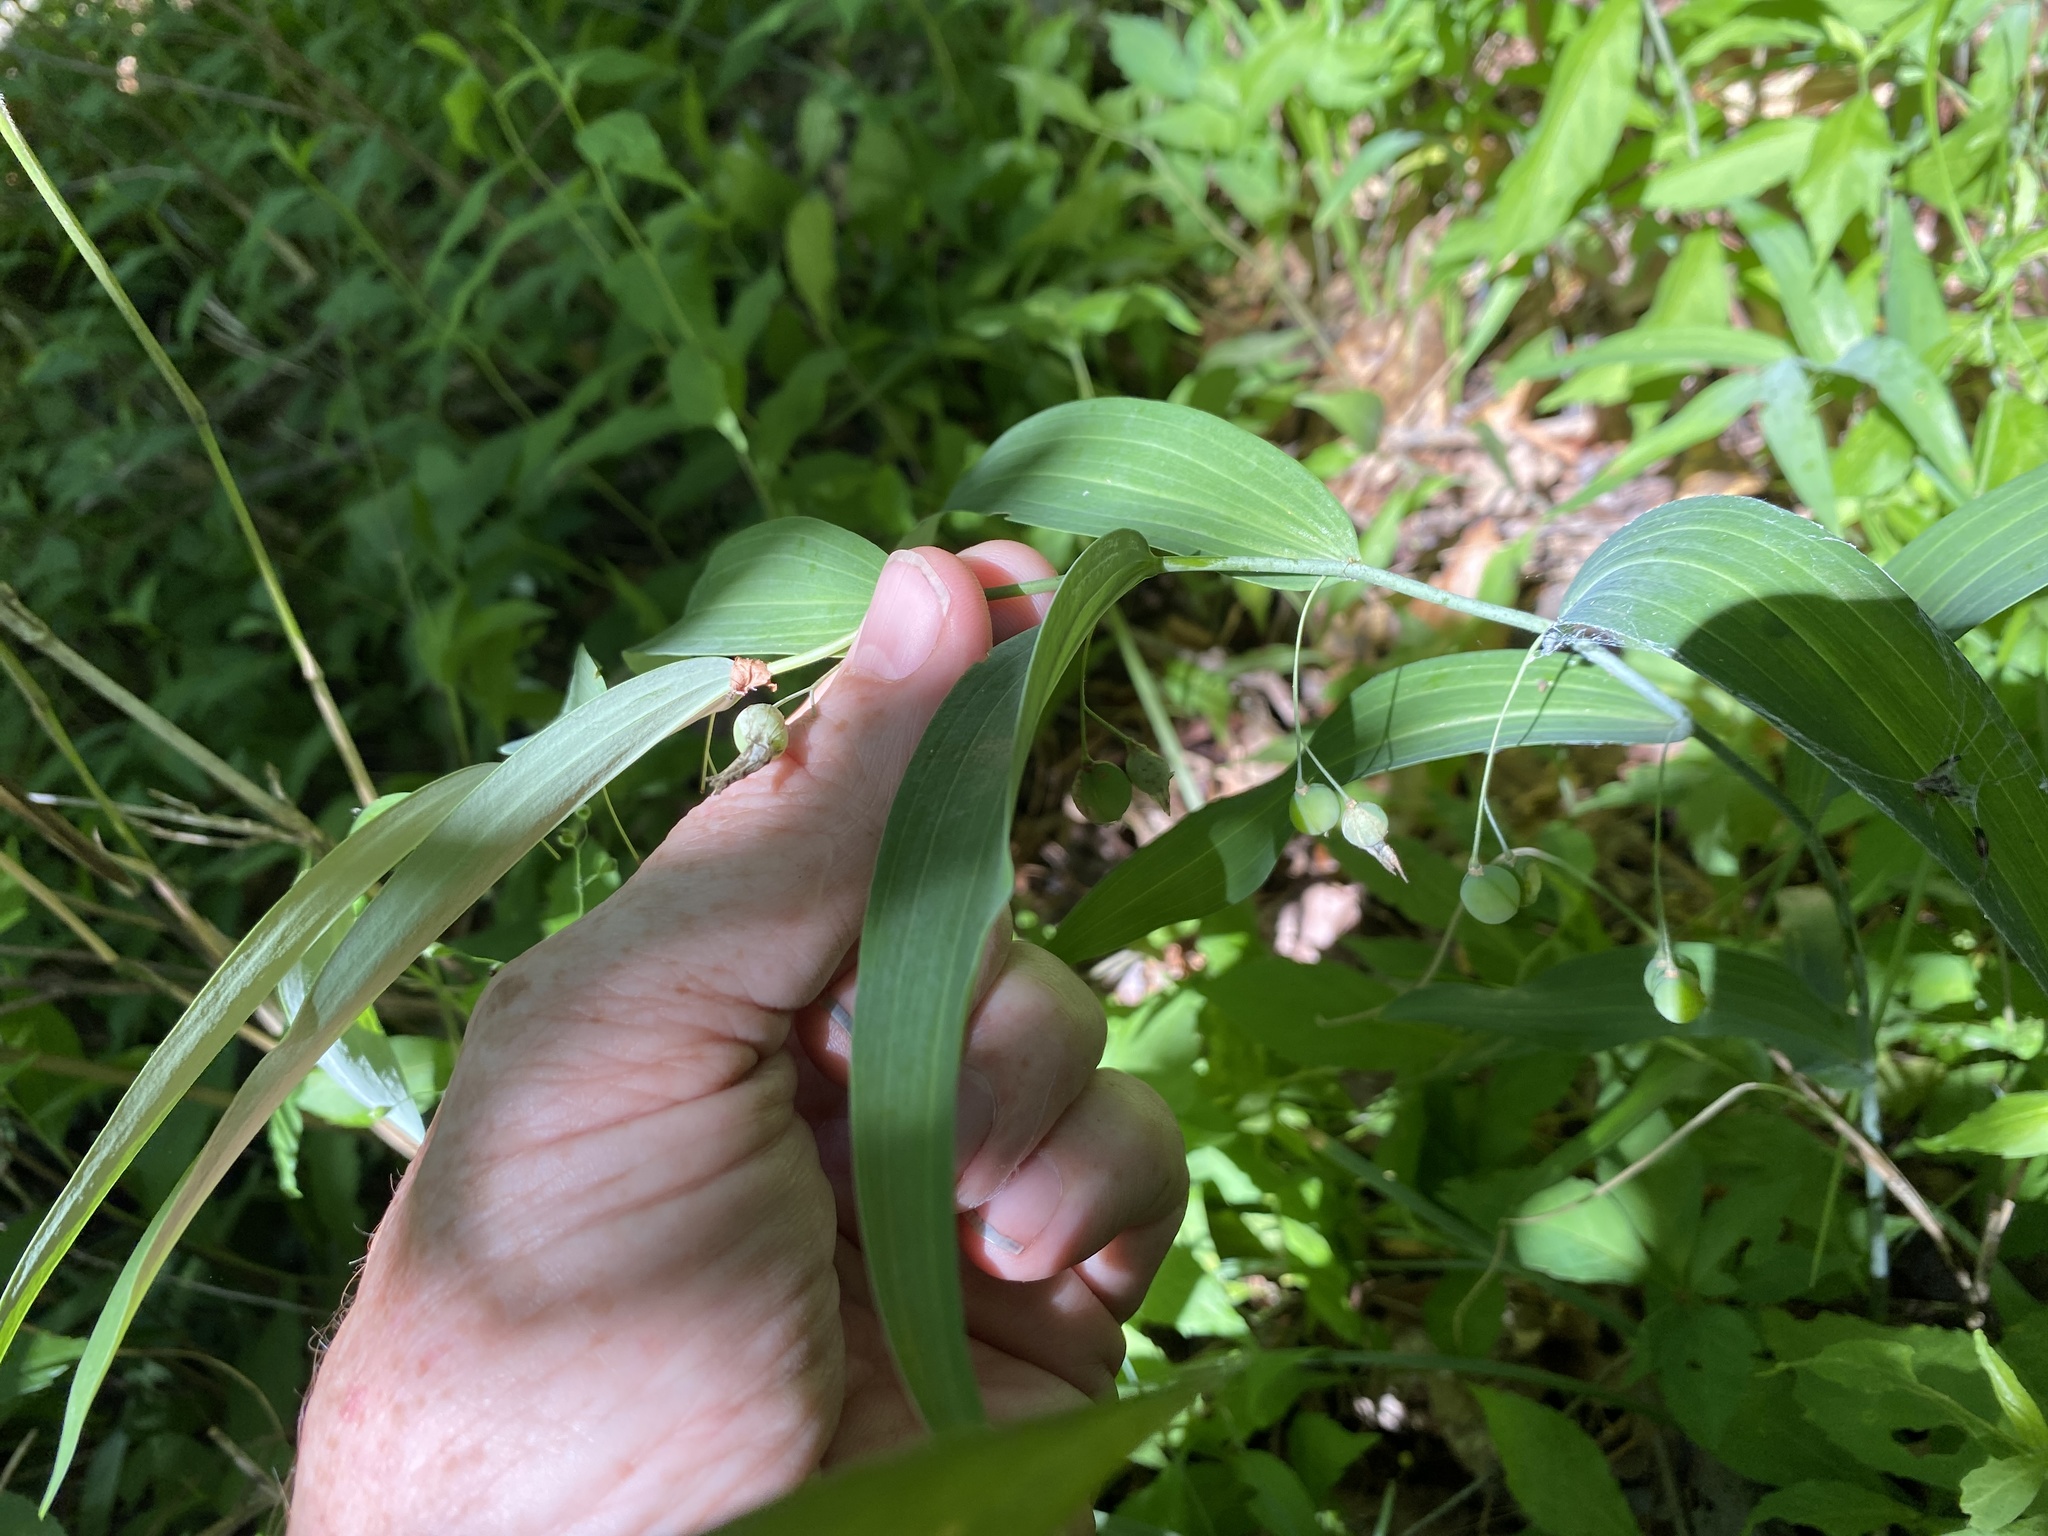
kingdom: Plantae
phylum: Tracheophyta
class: Liliopsida
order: Asparagales
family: Asparagaceae
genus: Polygonatum
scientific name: Polygonatum biflorum
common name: American solomon's-seal
